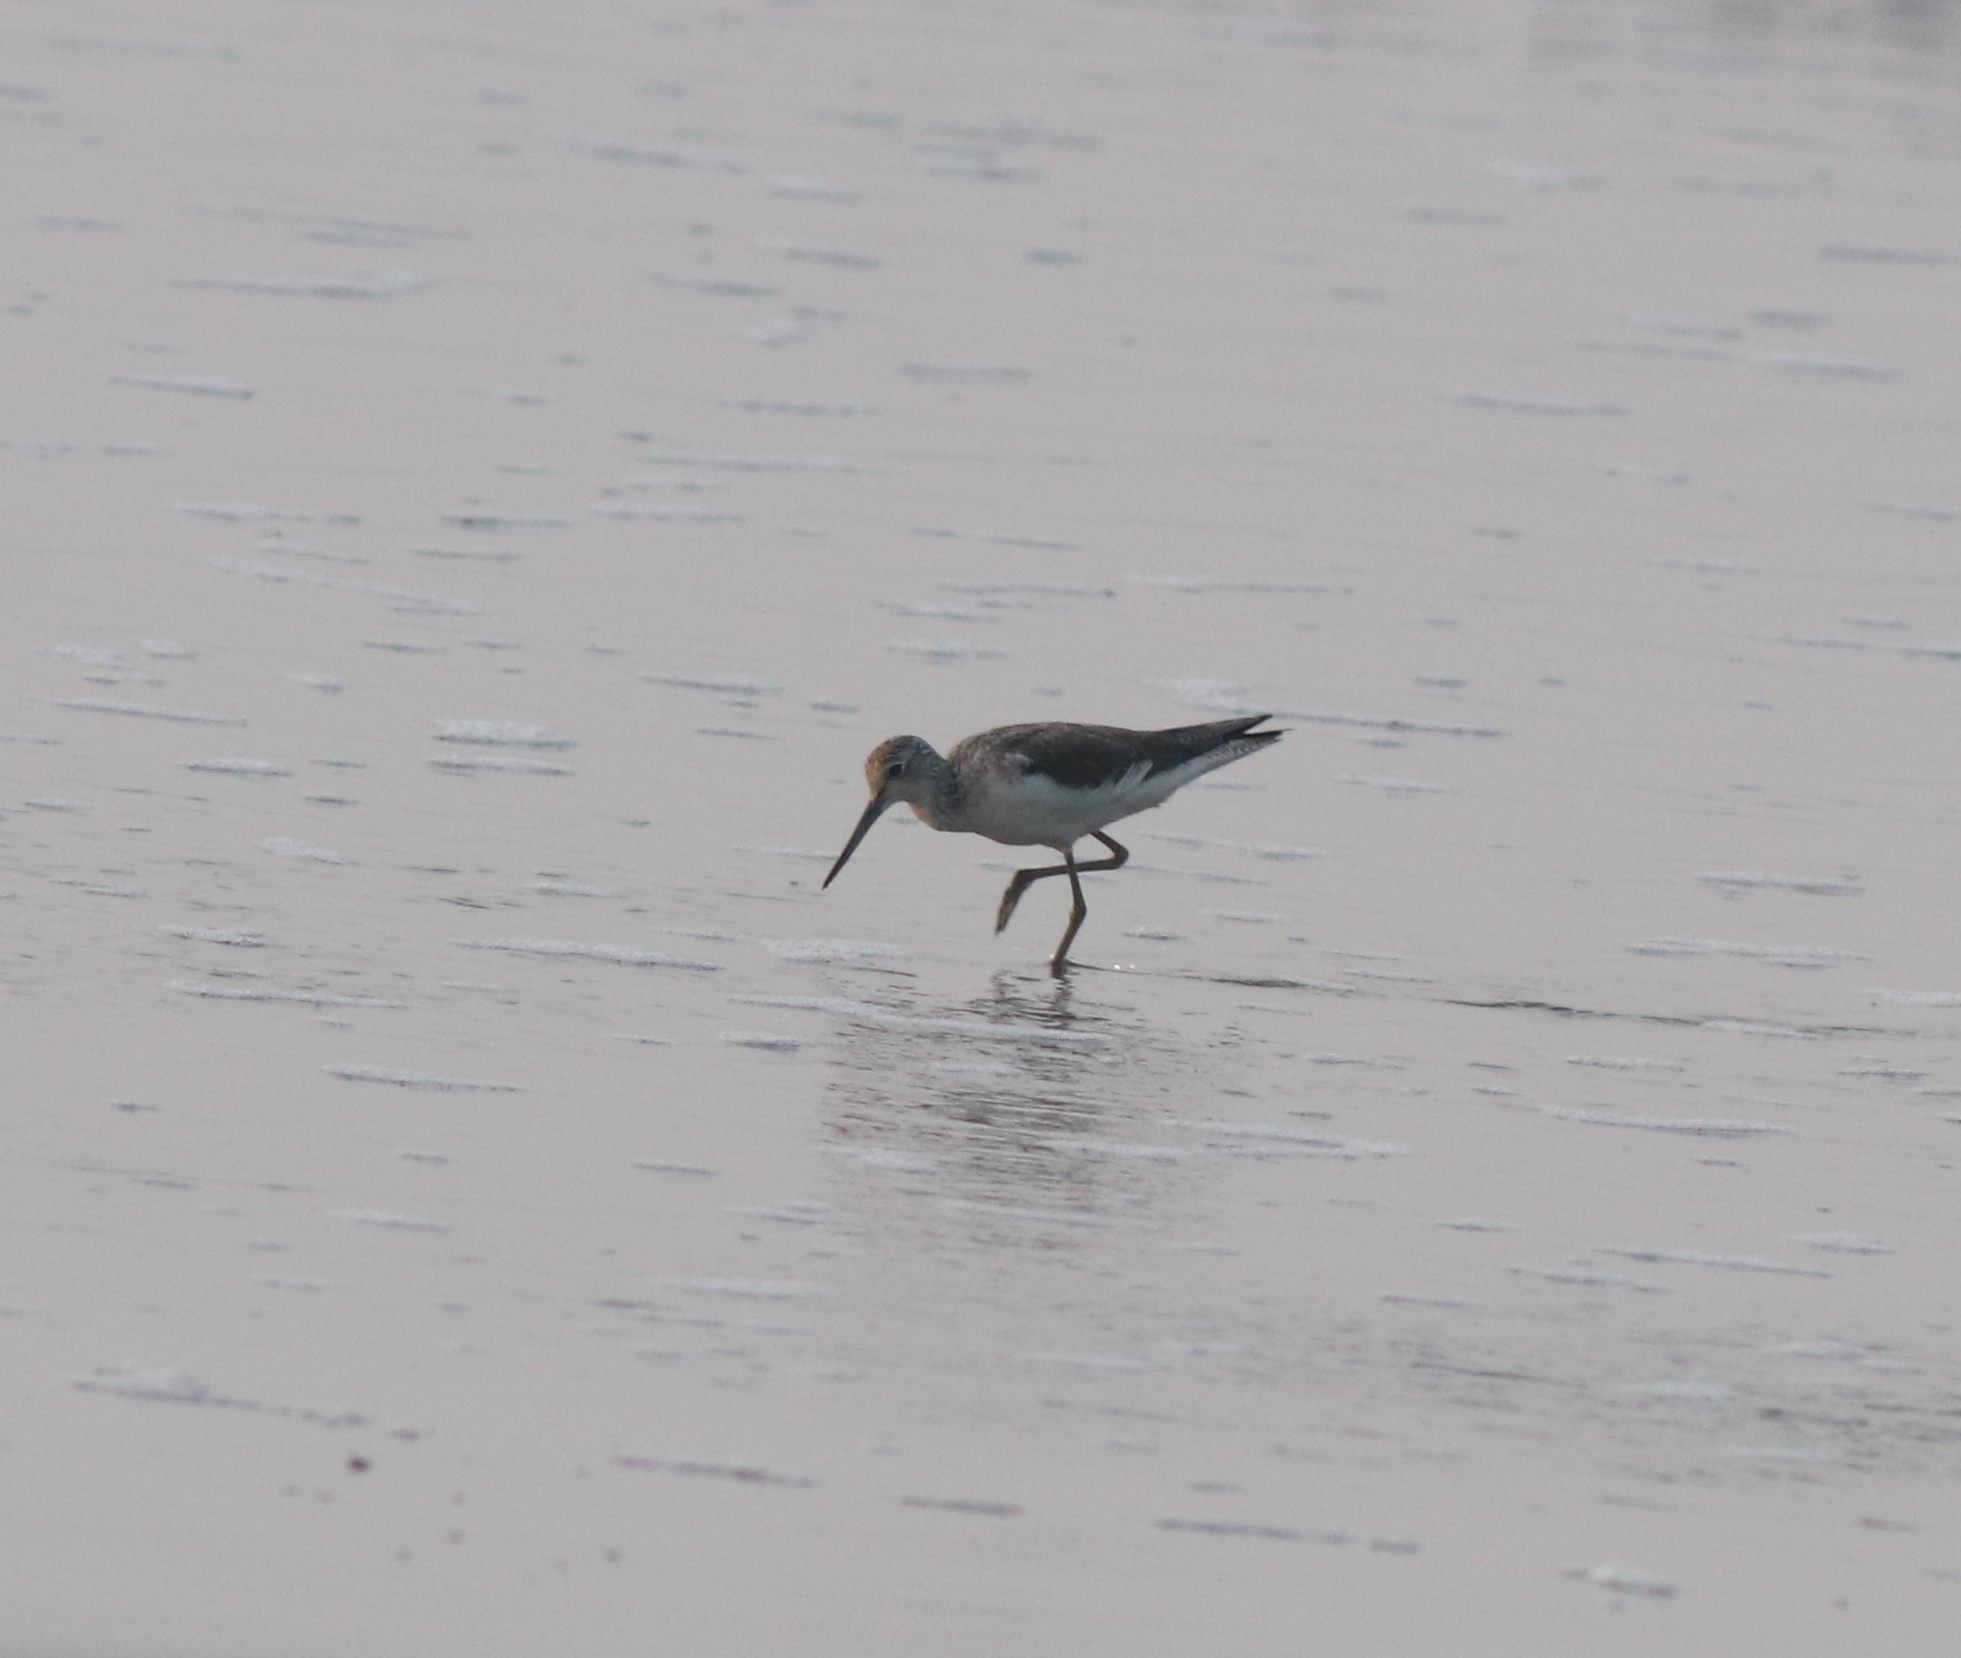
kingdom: Animalia
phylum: Chordata
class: Aves
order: Charadriiformes
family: Scolopacidae
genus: Tringa
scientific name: Tringa nebularia
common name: Common greenshank
